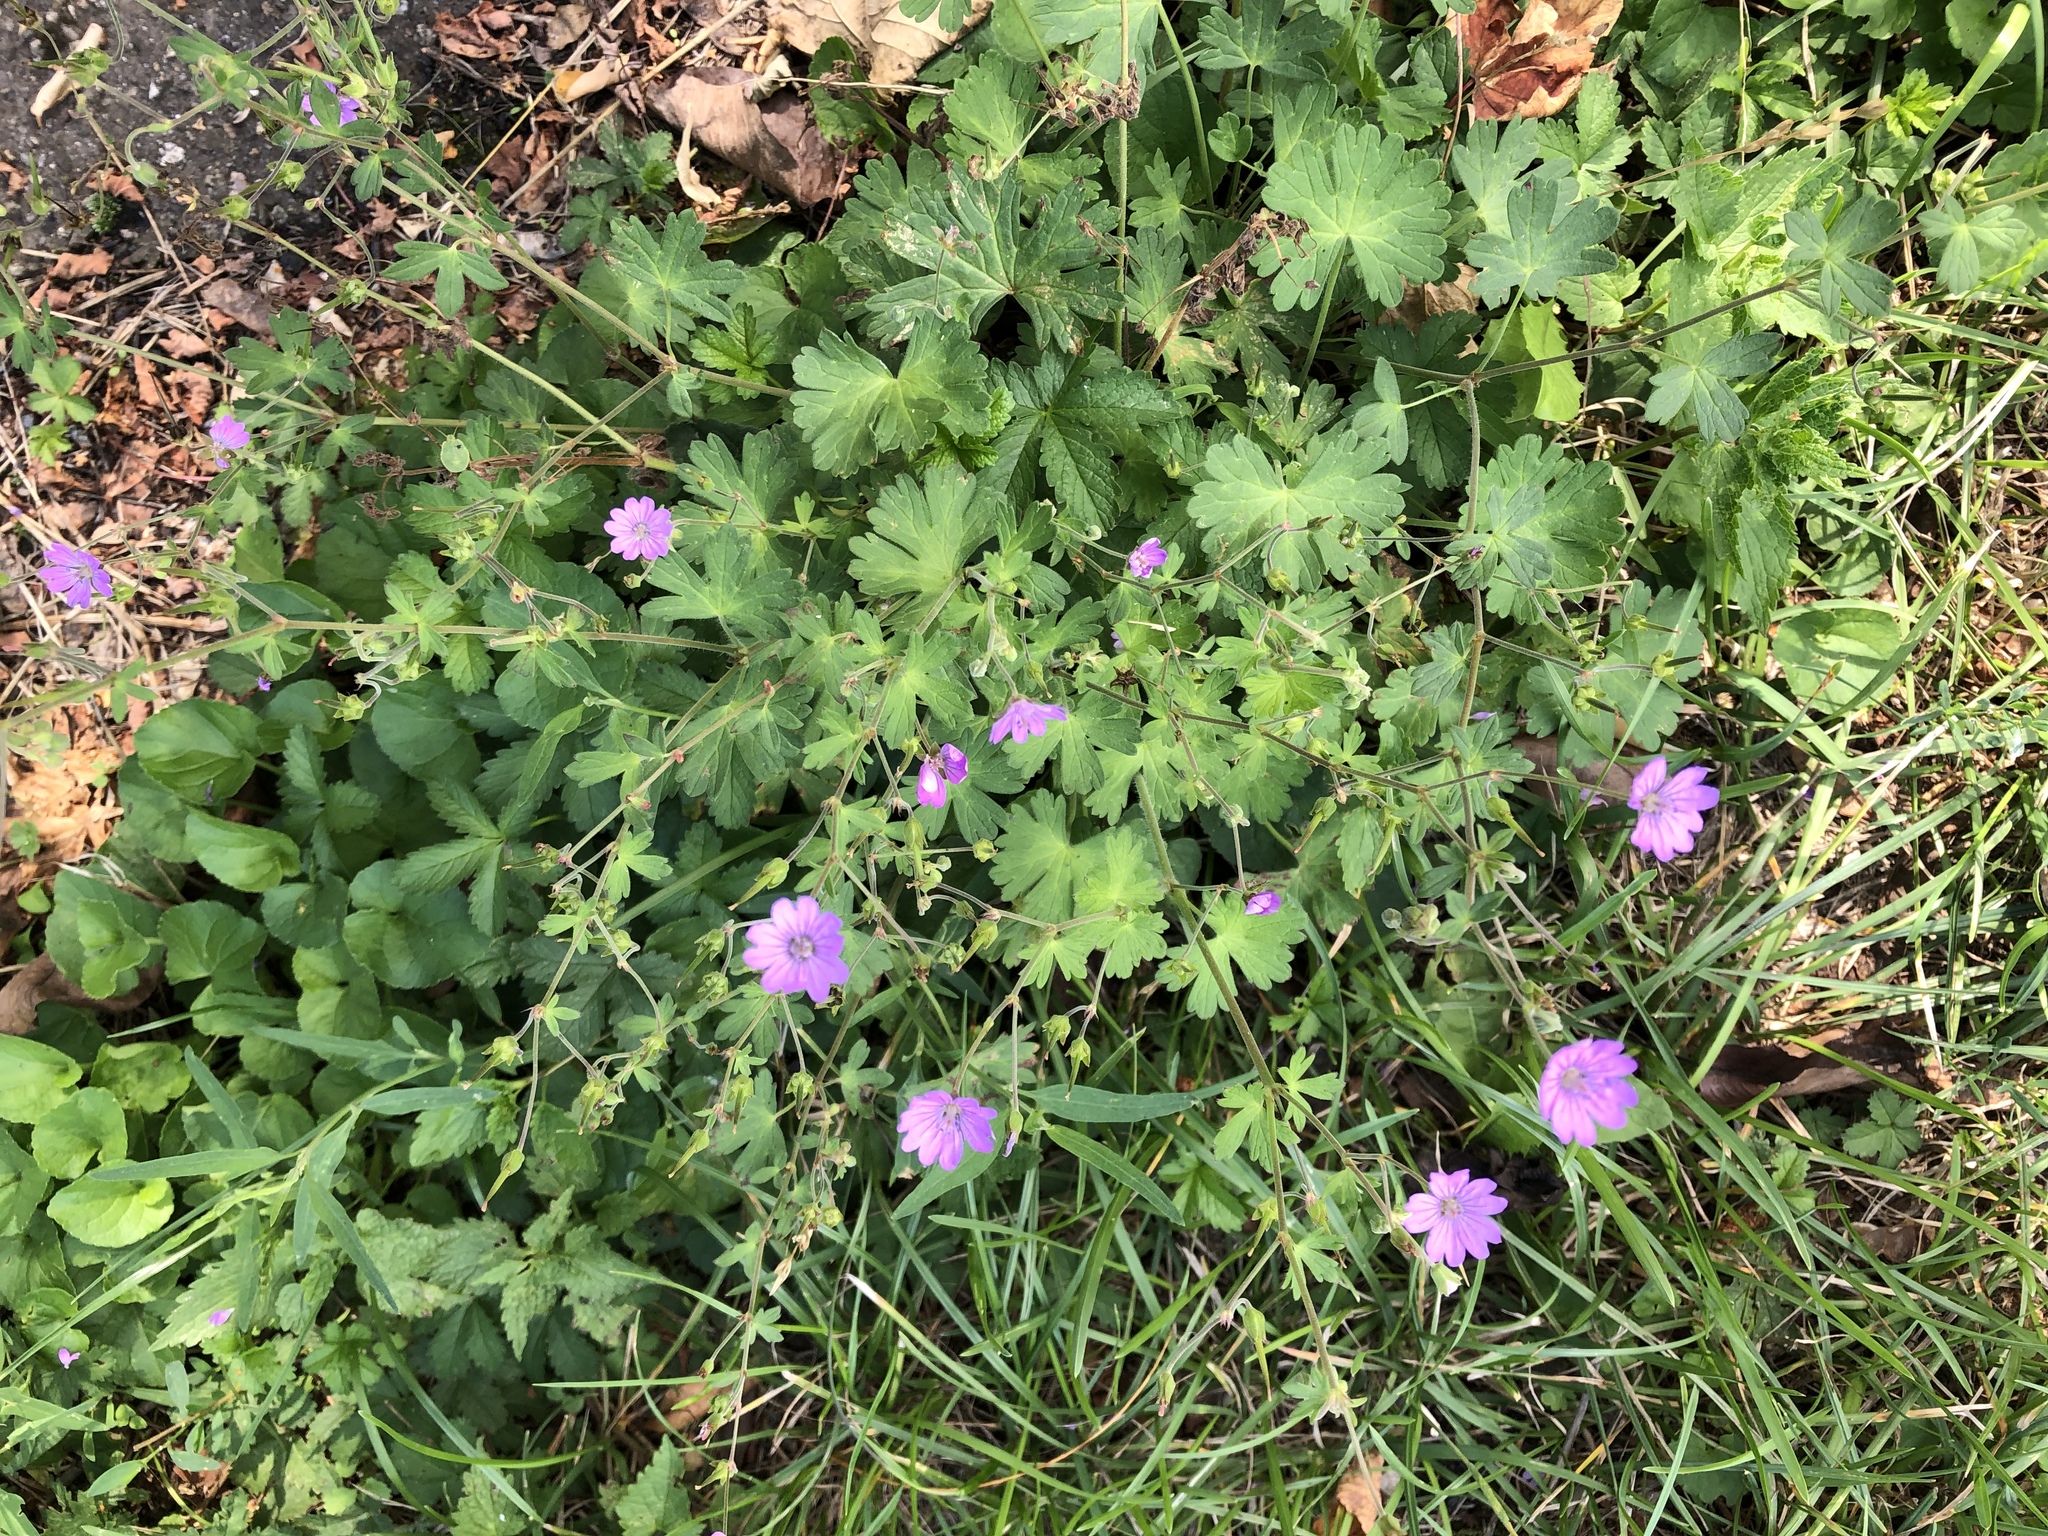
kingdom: Plantae
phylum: Tracheophyta
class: Magnoliopsida
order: Geraniales
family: Geraniaceae
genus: Geranium
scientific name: Geranium pyrenaicum
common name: Hedgerow crane's-bill
